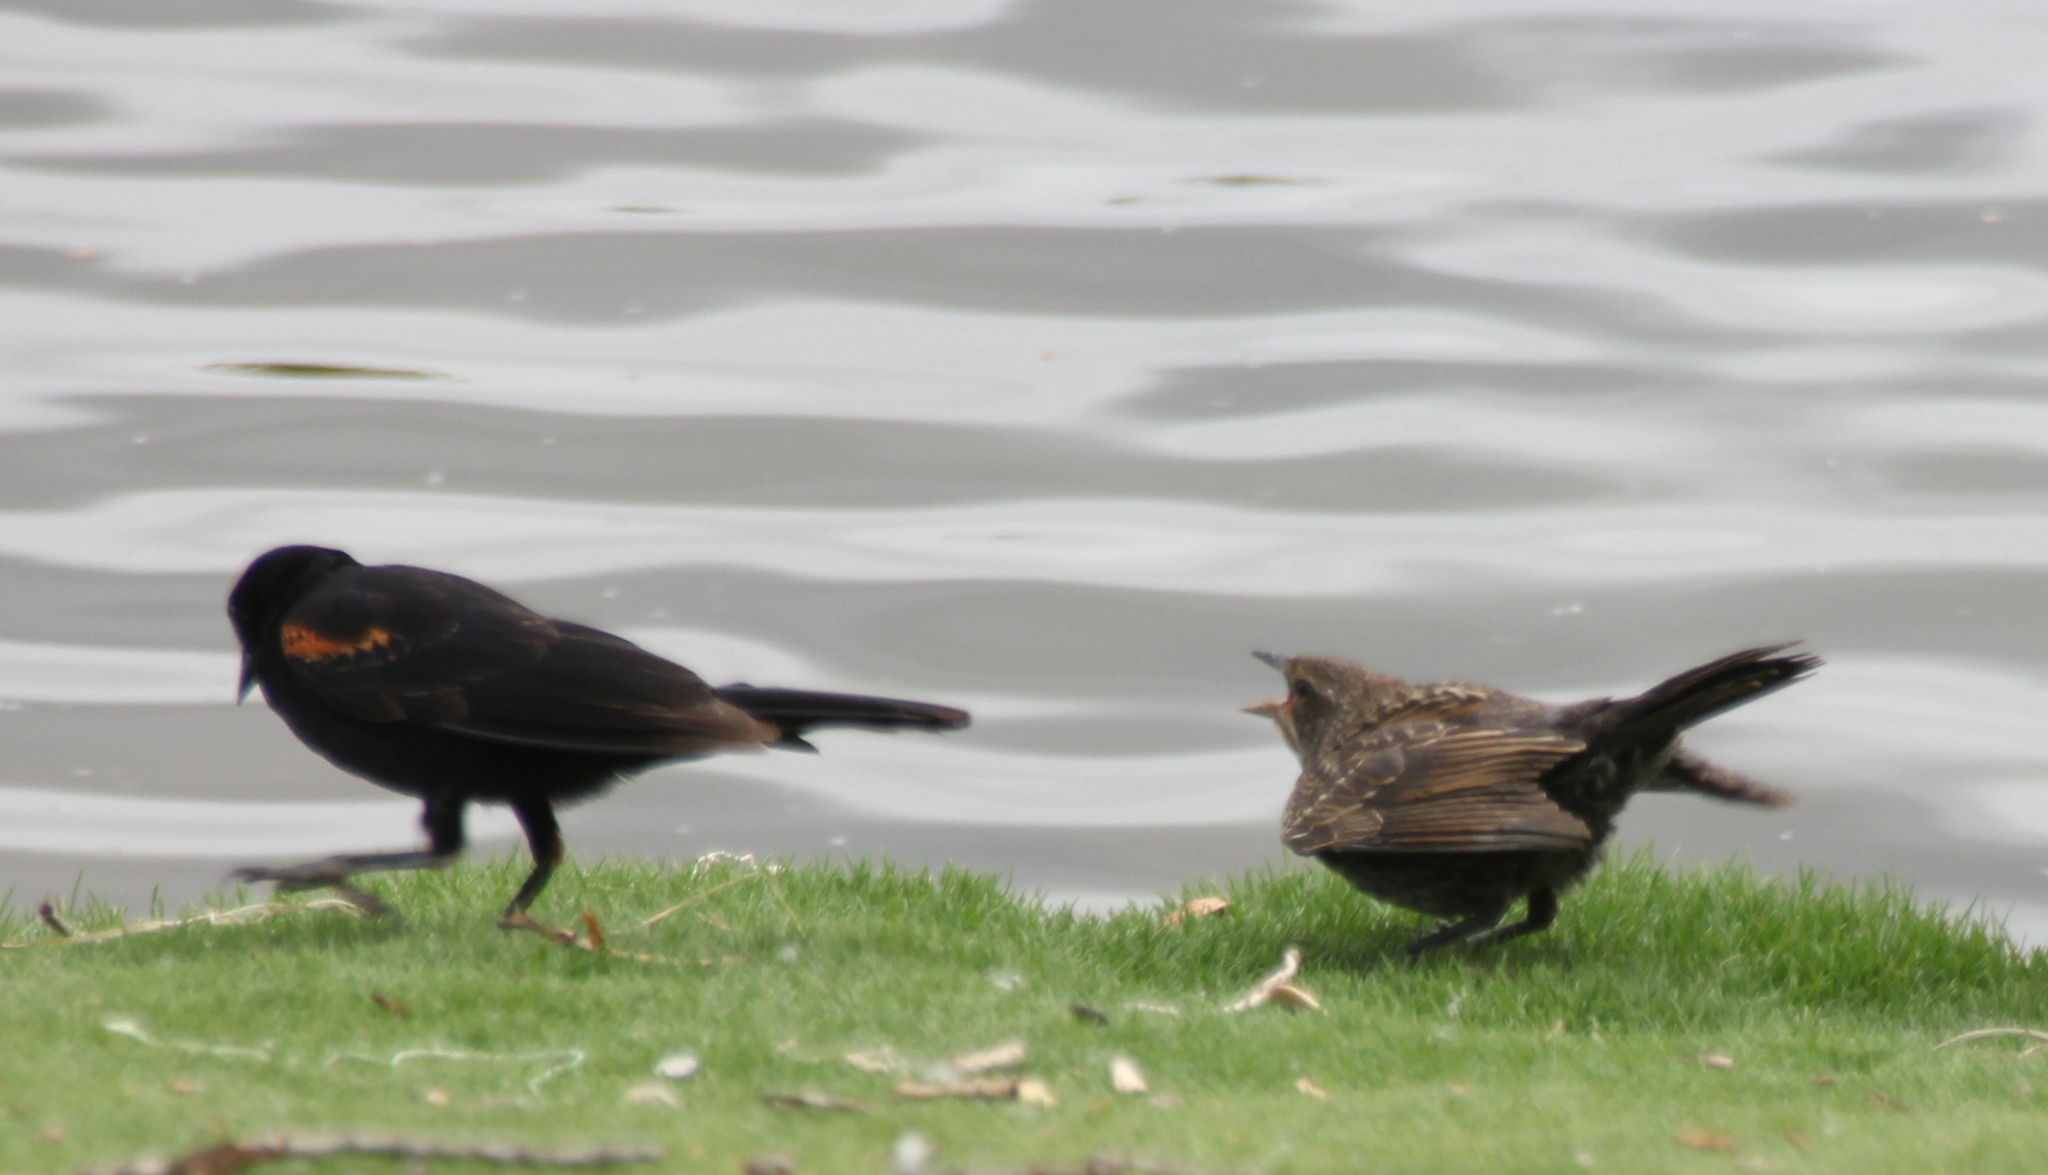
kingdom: Animalia
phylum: Chordata
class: Aves
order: Passeriformes
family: Icteridae
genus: Agelaius
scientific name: Agelaius phoeniceus
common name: Red-winged blackbird
